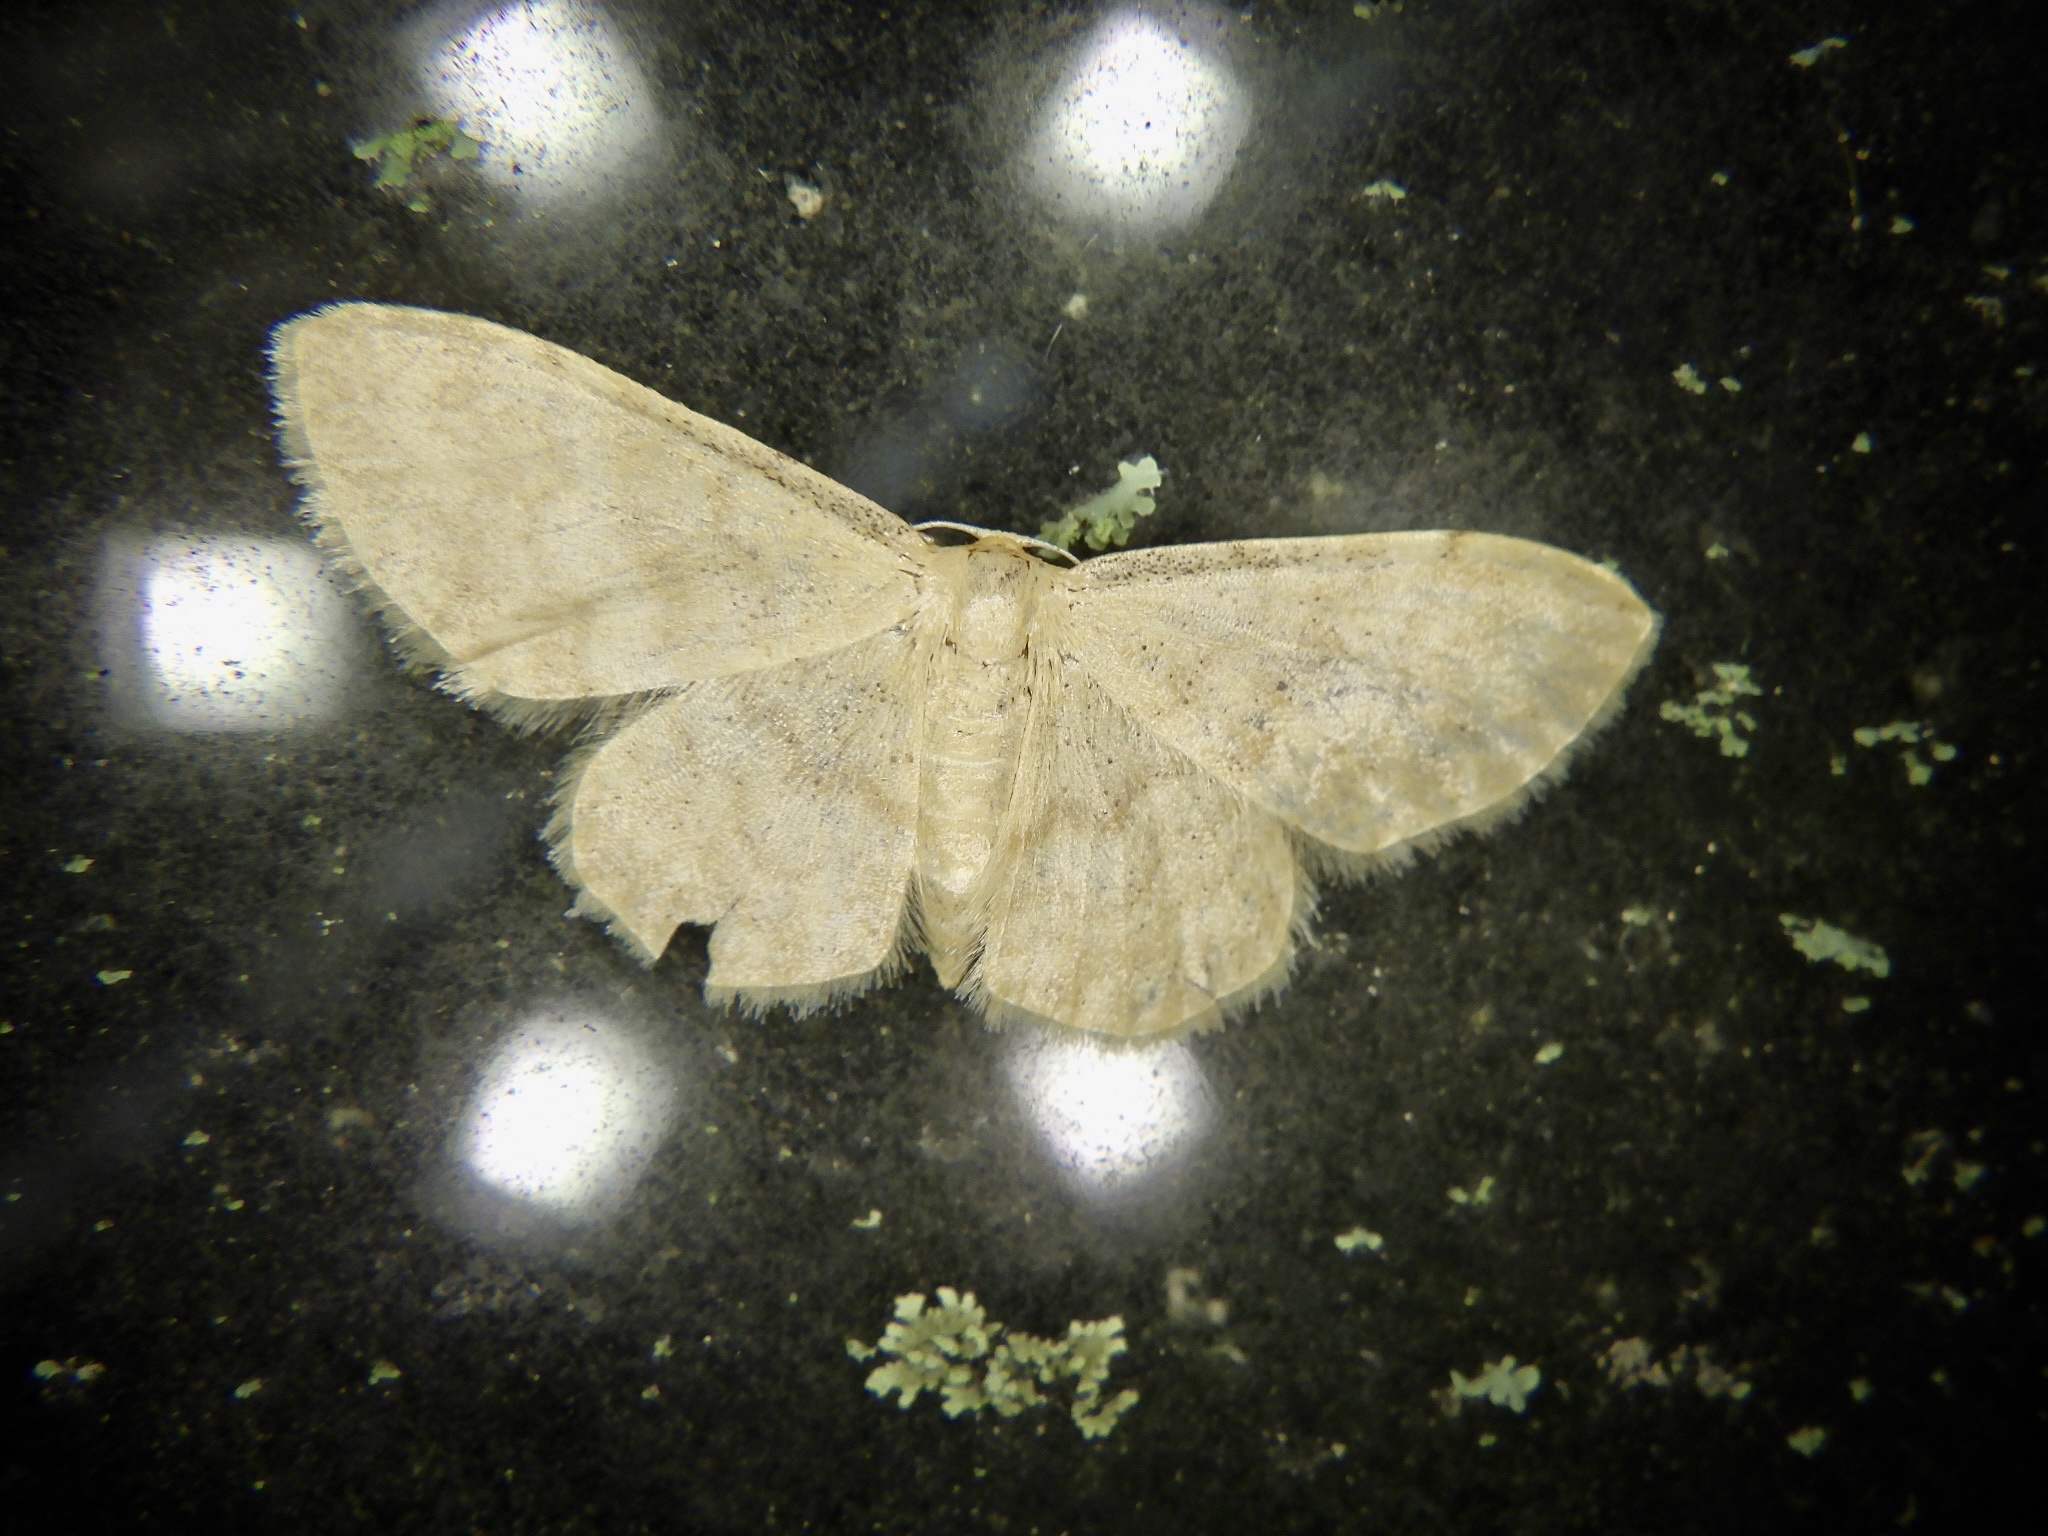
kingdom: Animalia
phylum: Arthropoda
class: Insecta
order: Lepidoptera
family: Geometridae
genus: Idaea
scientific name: Idaea effusaria
